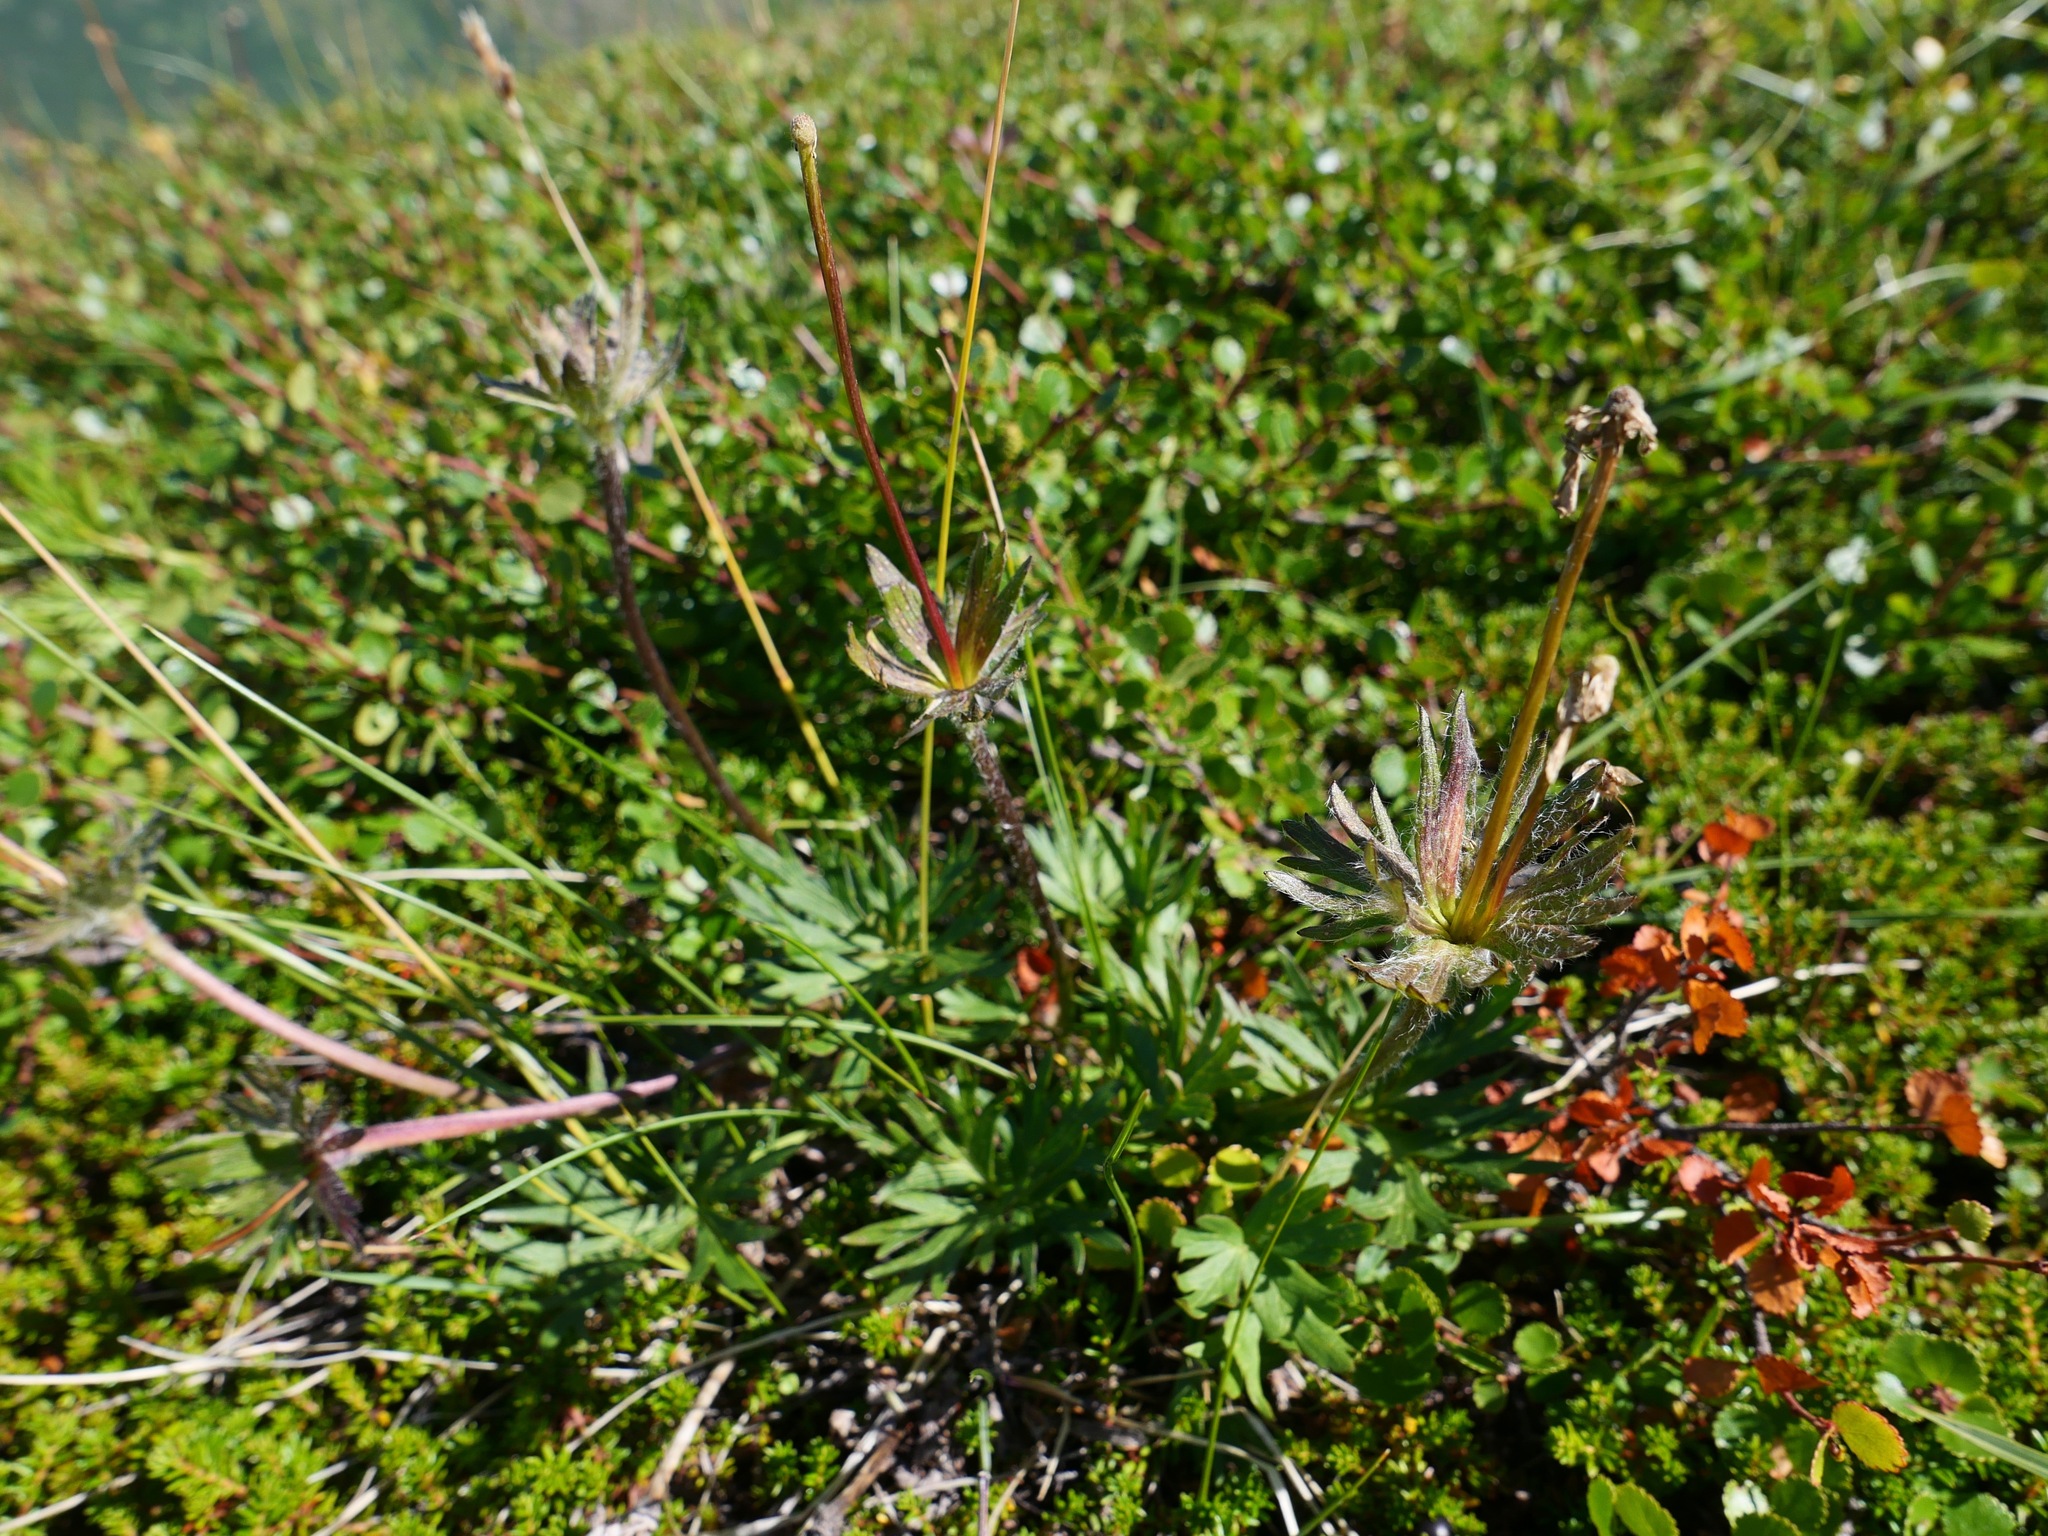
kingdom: Plantae
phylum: Tracheophyta
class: Magnoliopsida
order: Geraniales
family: Geraniaceae
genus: Geranium
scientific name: Geranium erianthum
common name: Northern crane's-bill
